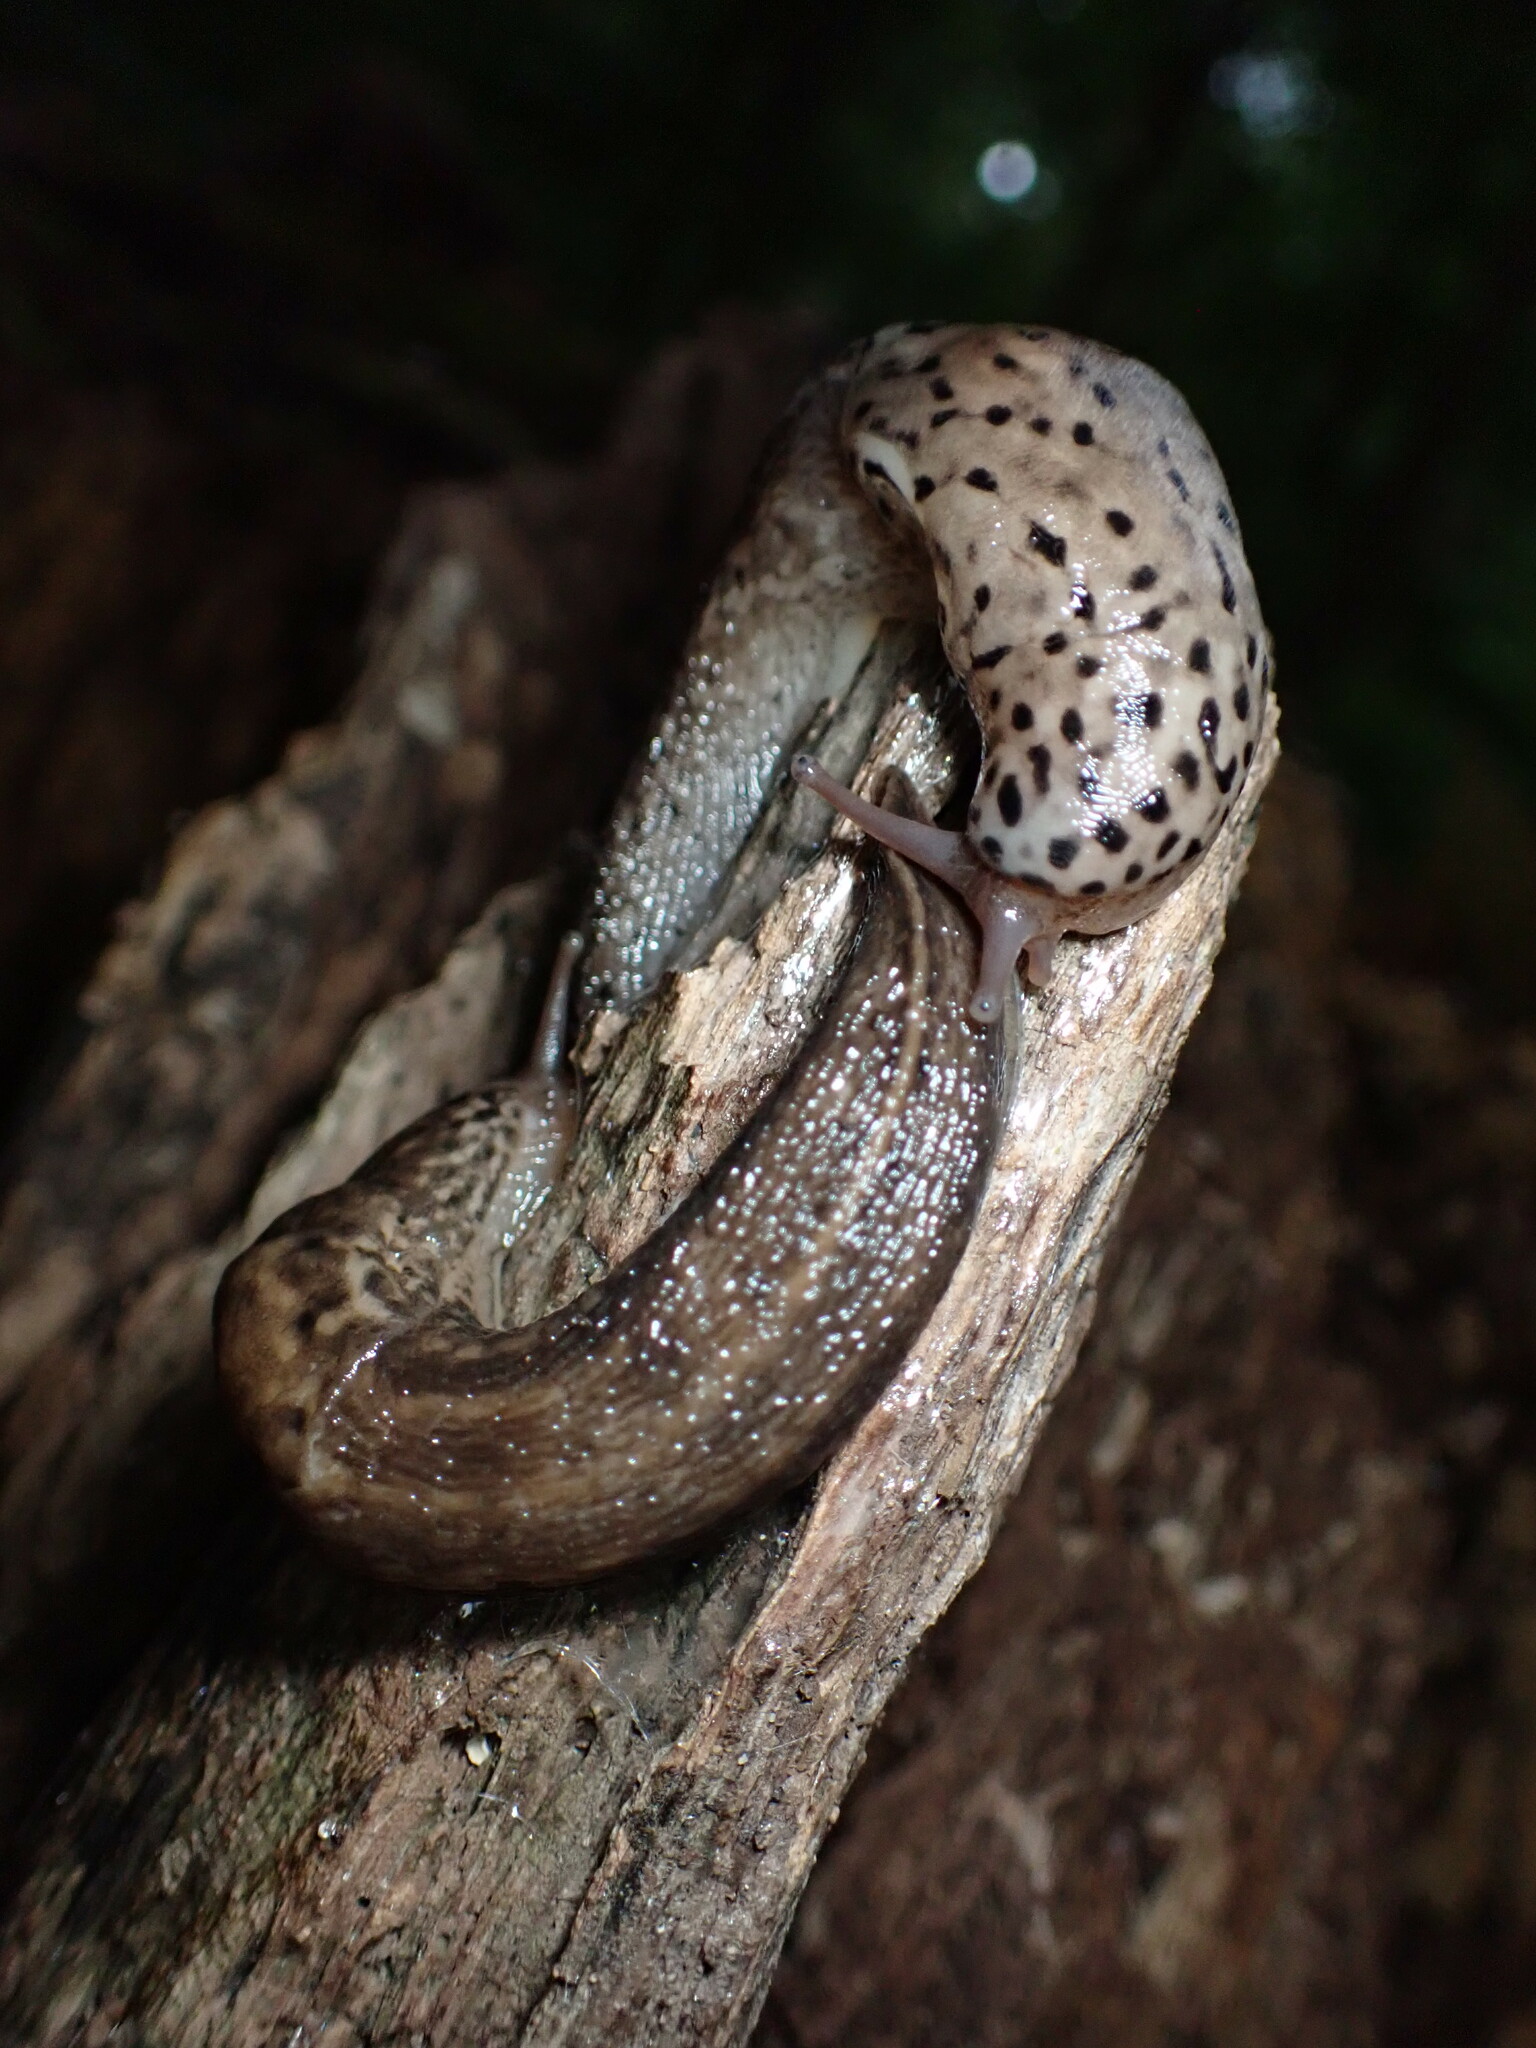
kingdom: Animalia
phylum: Mollusca
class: Gastropoda
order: Stylommatophora
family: Limacidae
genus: Limax
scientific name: Limax maximus
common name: Great grey slug
